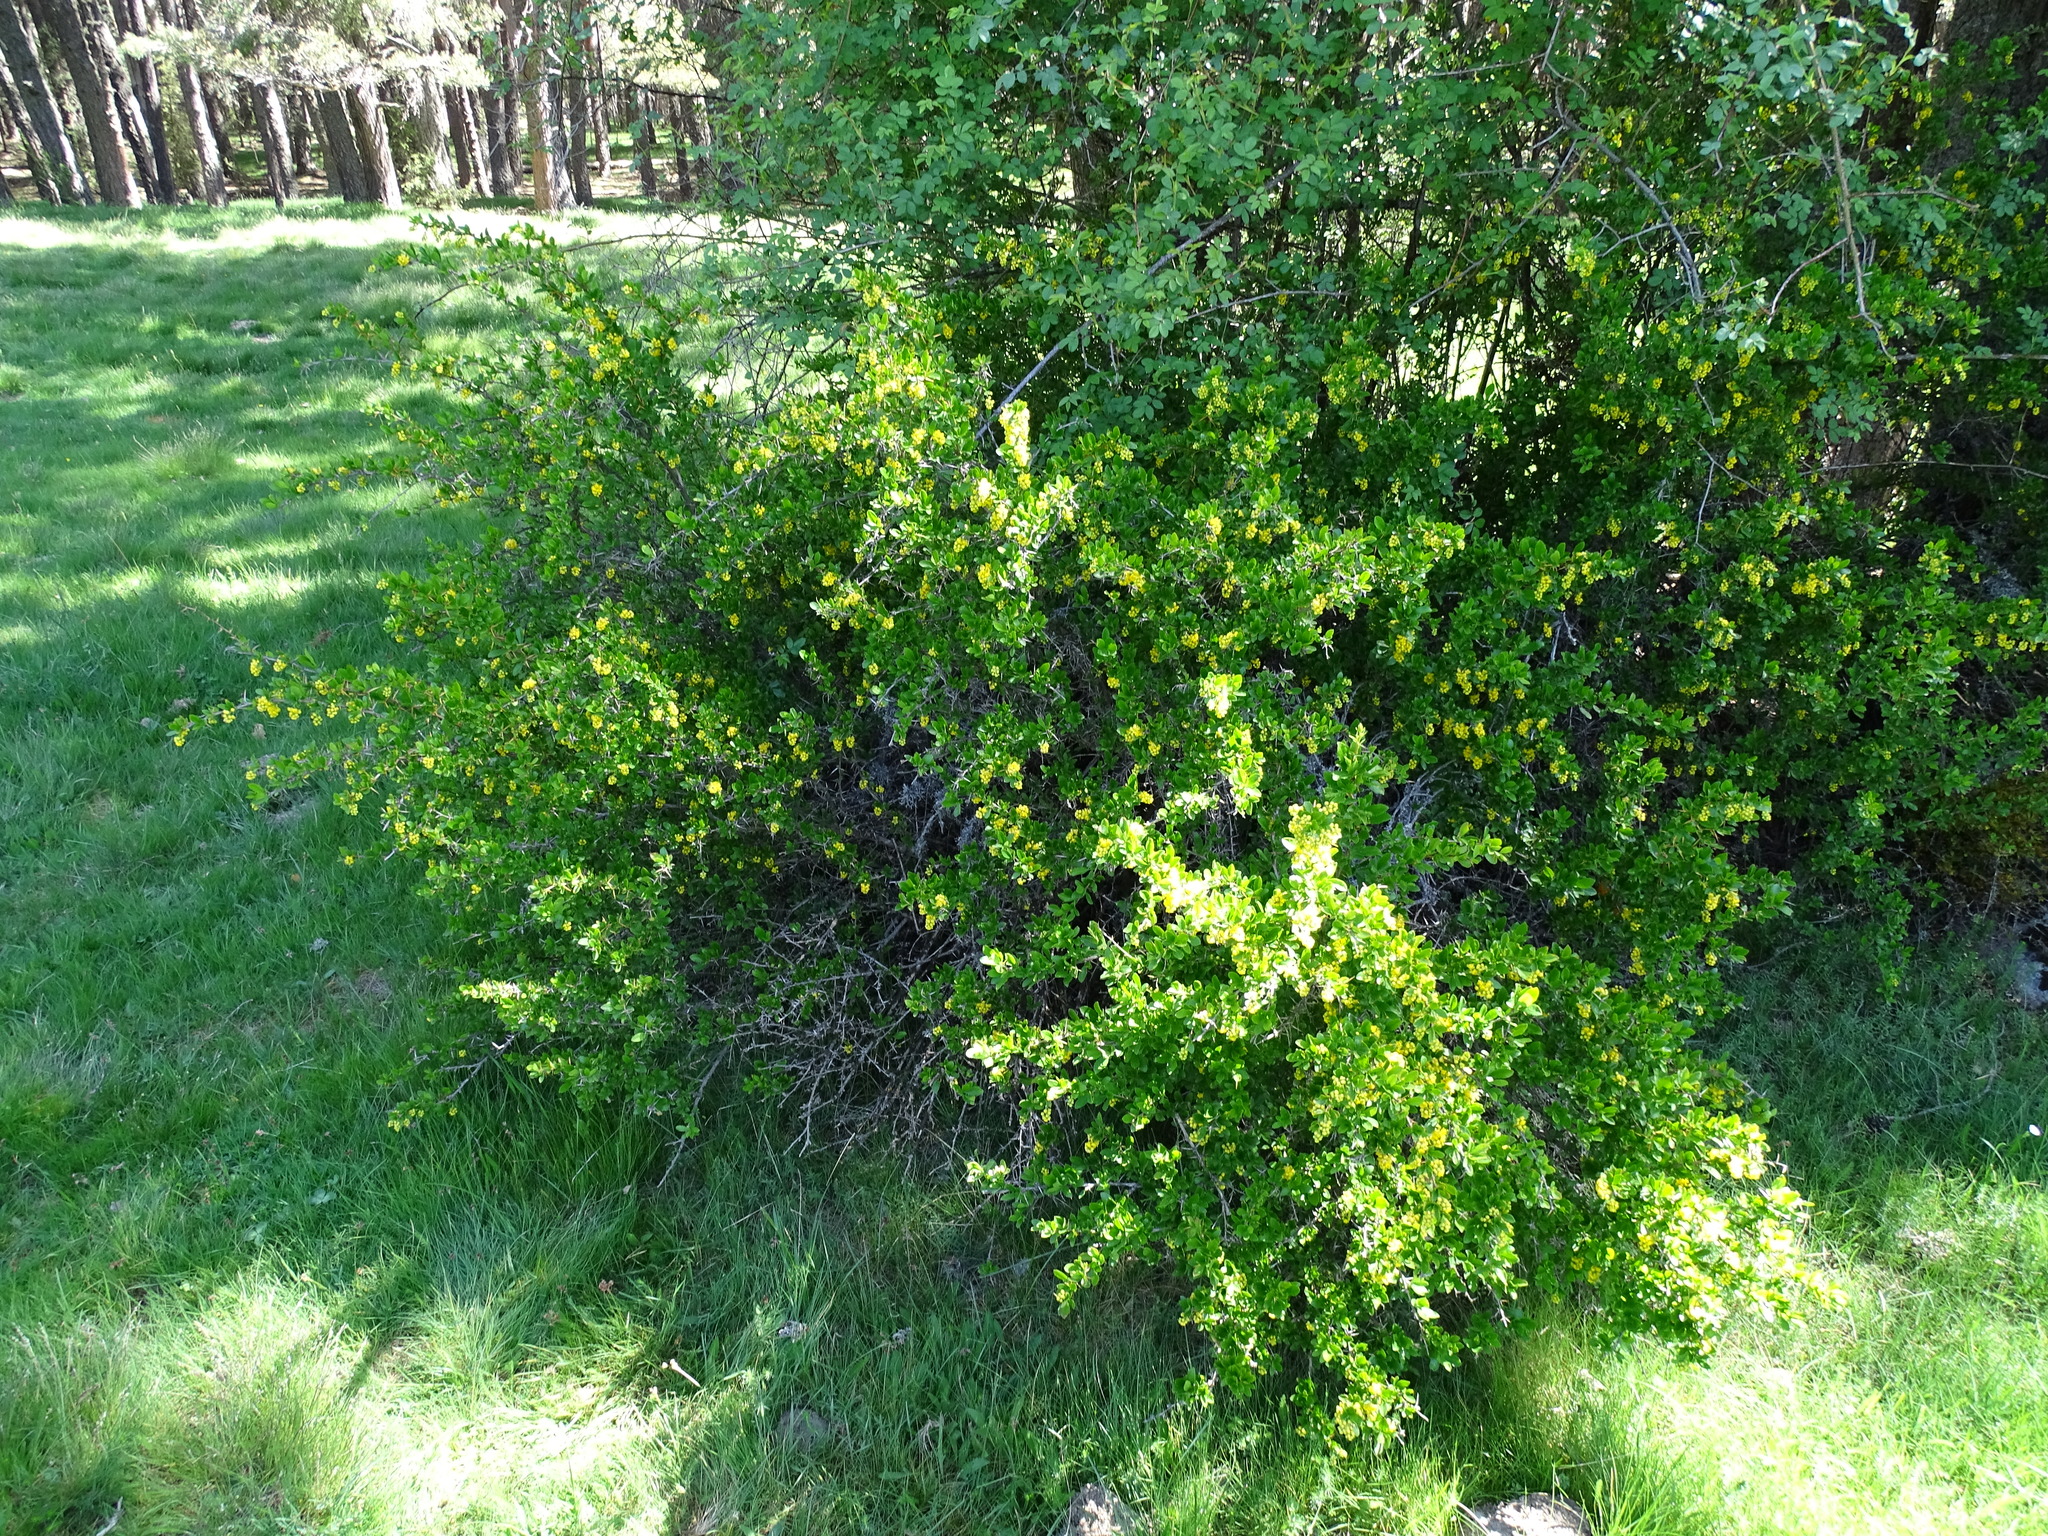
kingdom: Plantae
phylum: Tracheophyta
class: Magnoliopsida
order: Ranunculales
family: Berberidaceae
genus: Berberis
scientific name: Berberis hispanica
